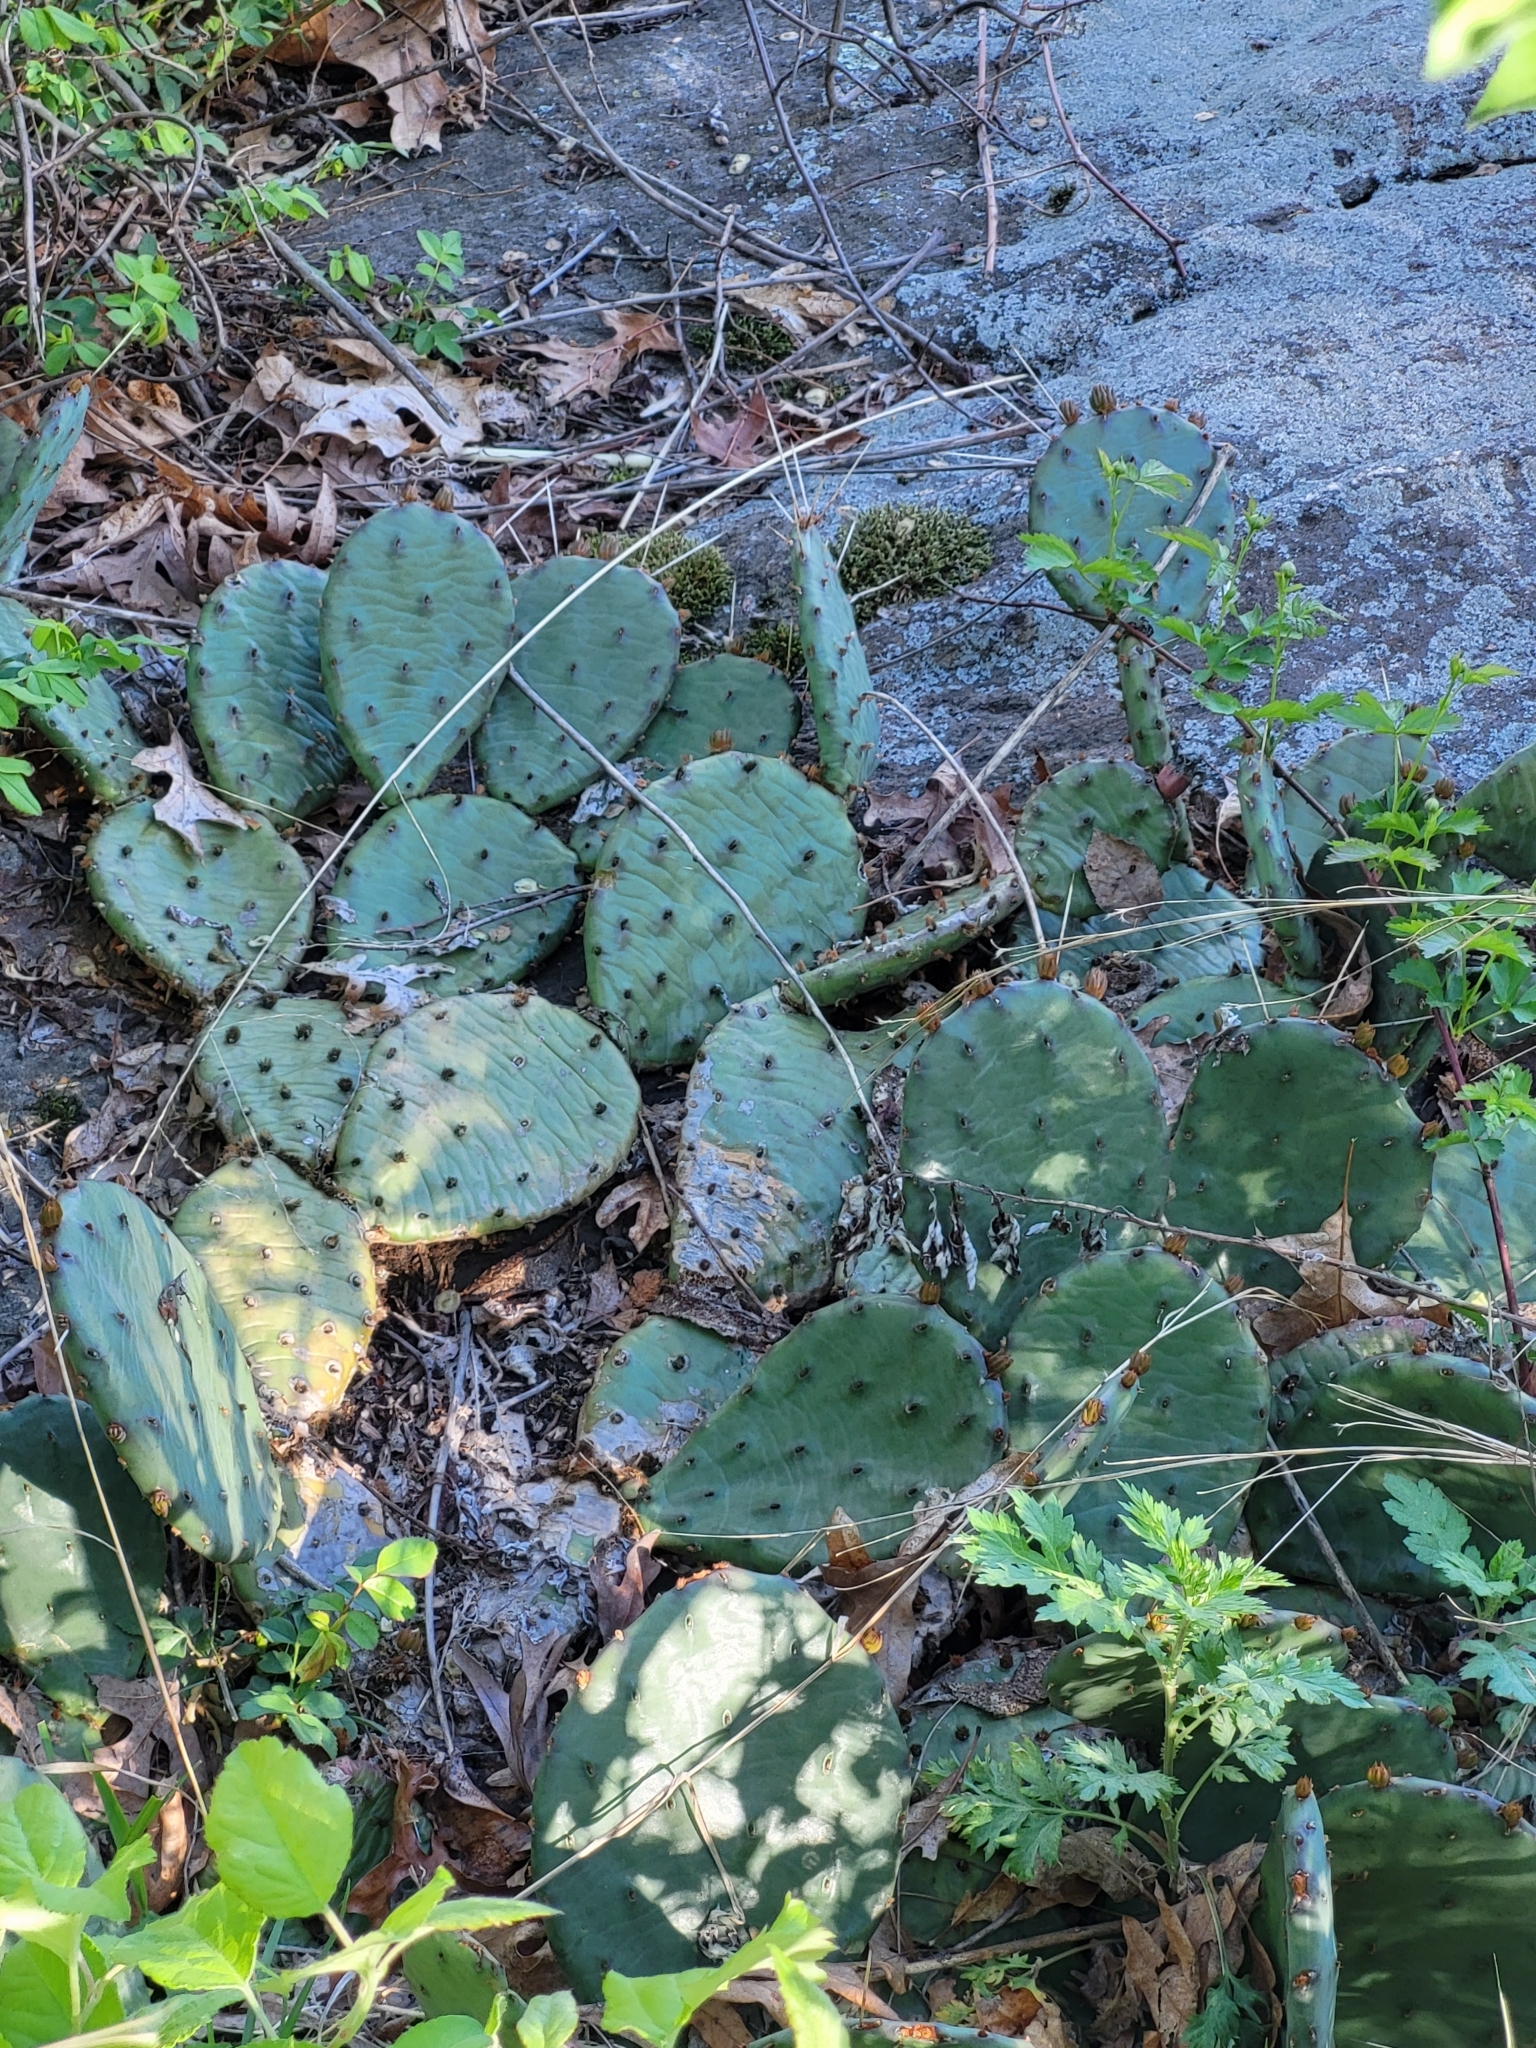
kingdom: Plantae
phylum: Tracheophyta
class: Magnoliopsida
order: Caryophyllales
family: Cactaceae
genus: Opuntia
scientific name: Opuntia humifusa
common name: Eastern prickly-pear
